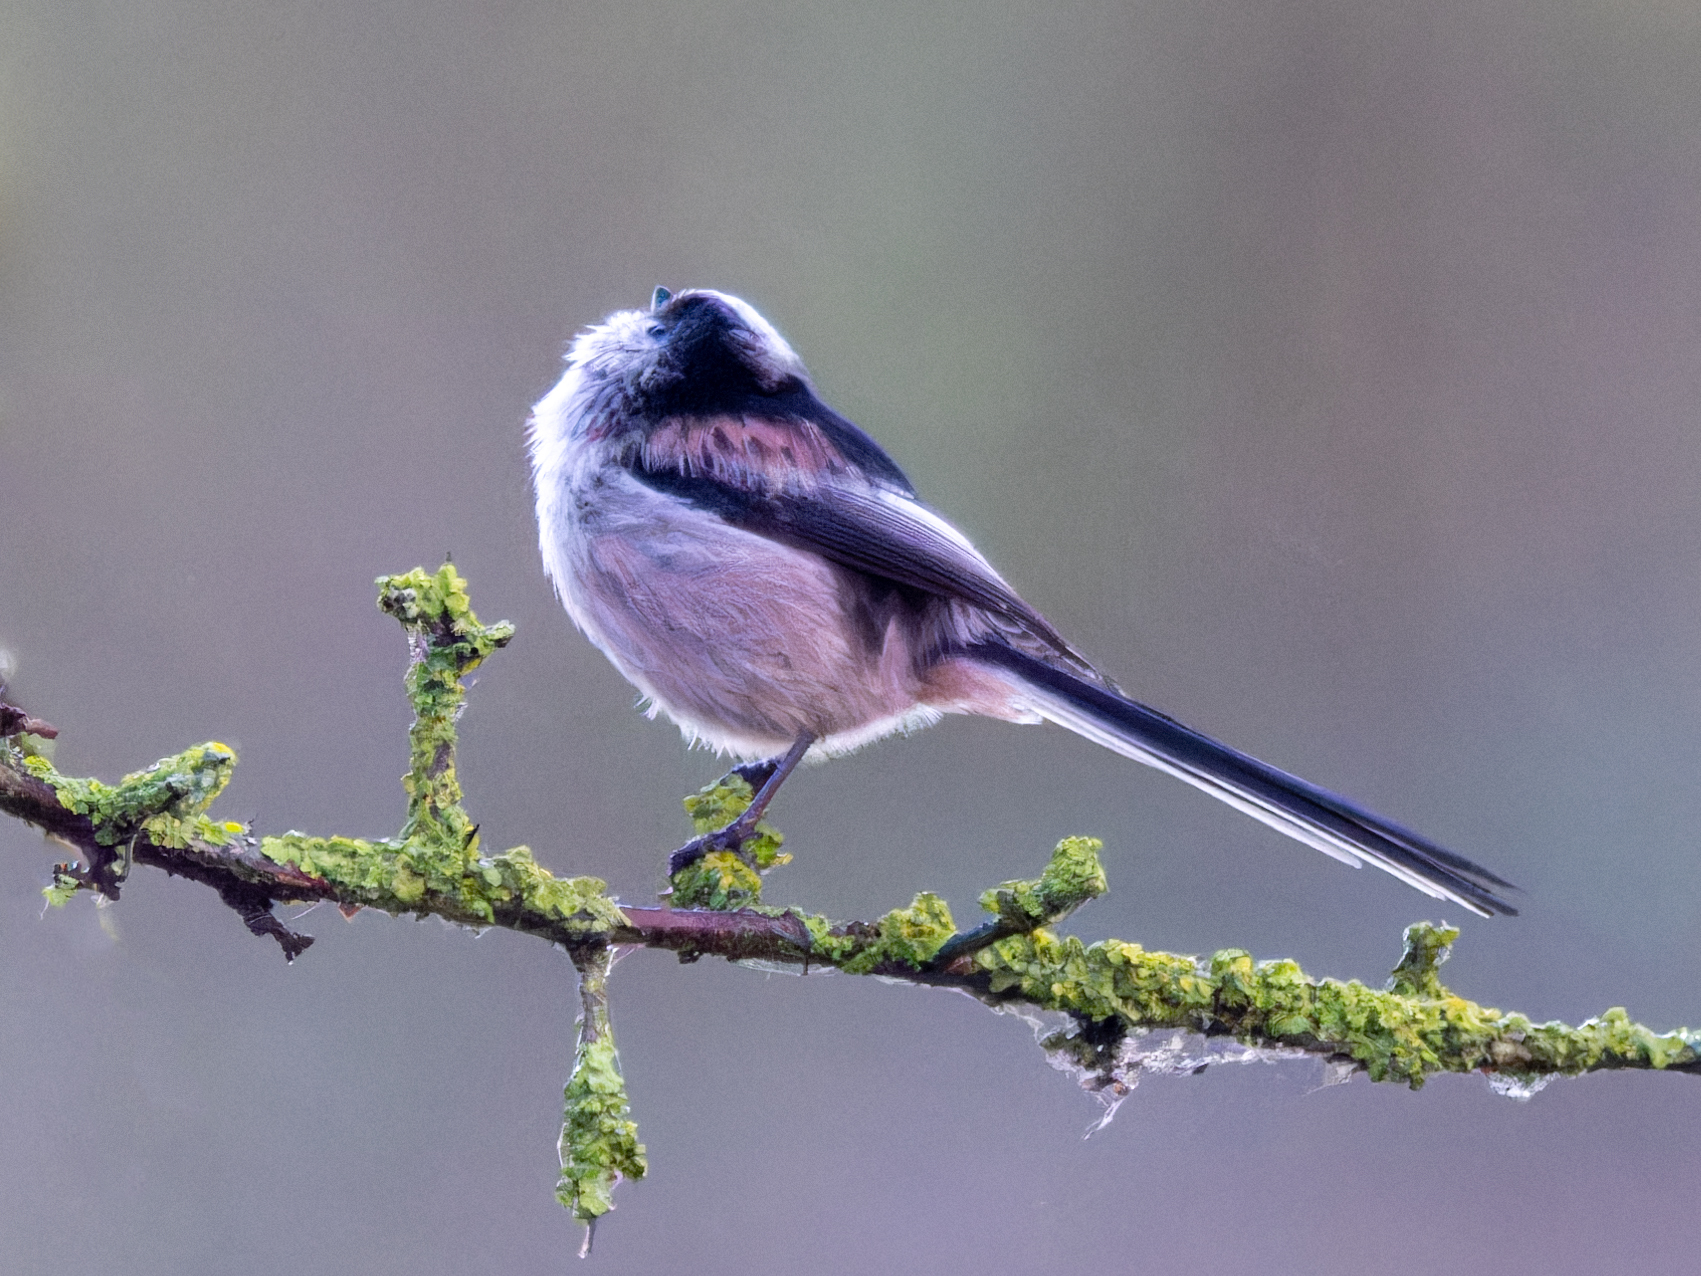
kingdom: Animalia
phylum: Chordata
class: Aves
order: Passeriformes
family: Aegithalidae
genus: Aegithalos
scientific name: Aegithalos caudatus
